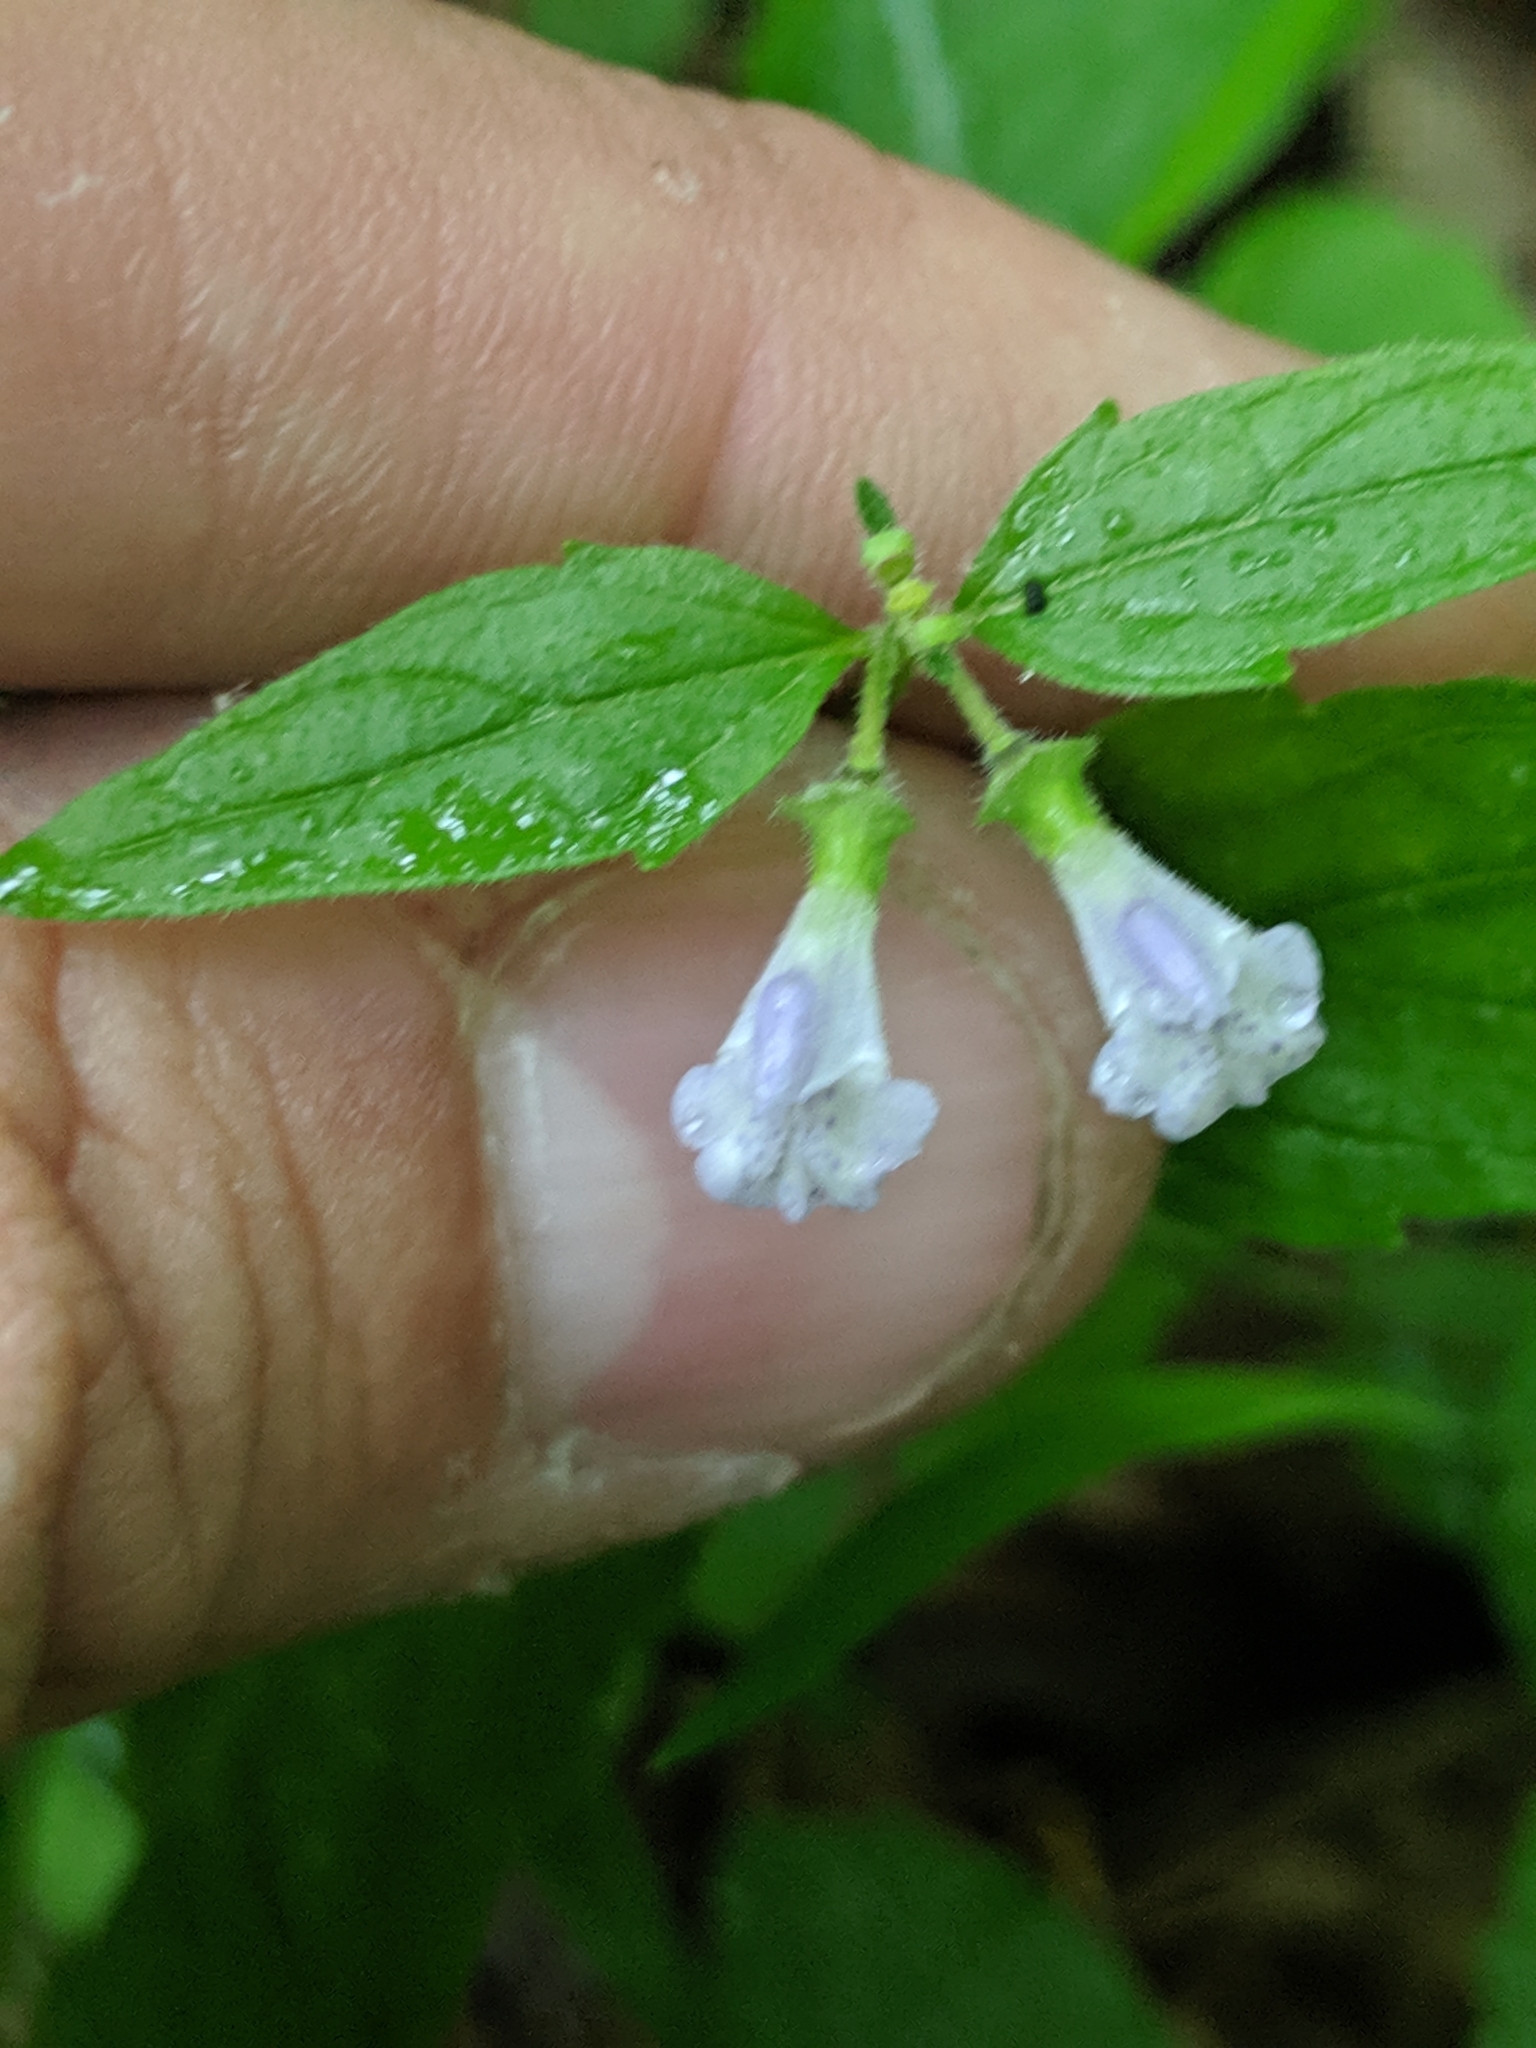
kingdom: Plantae
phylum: Tracheophyta
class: Magnoliopsida
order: Lamiales
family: Lamiaceae
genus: Scutellaria
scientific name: Scutellaria nervosa
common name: Bottomland skullcap
